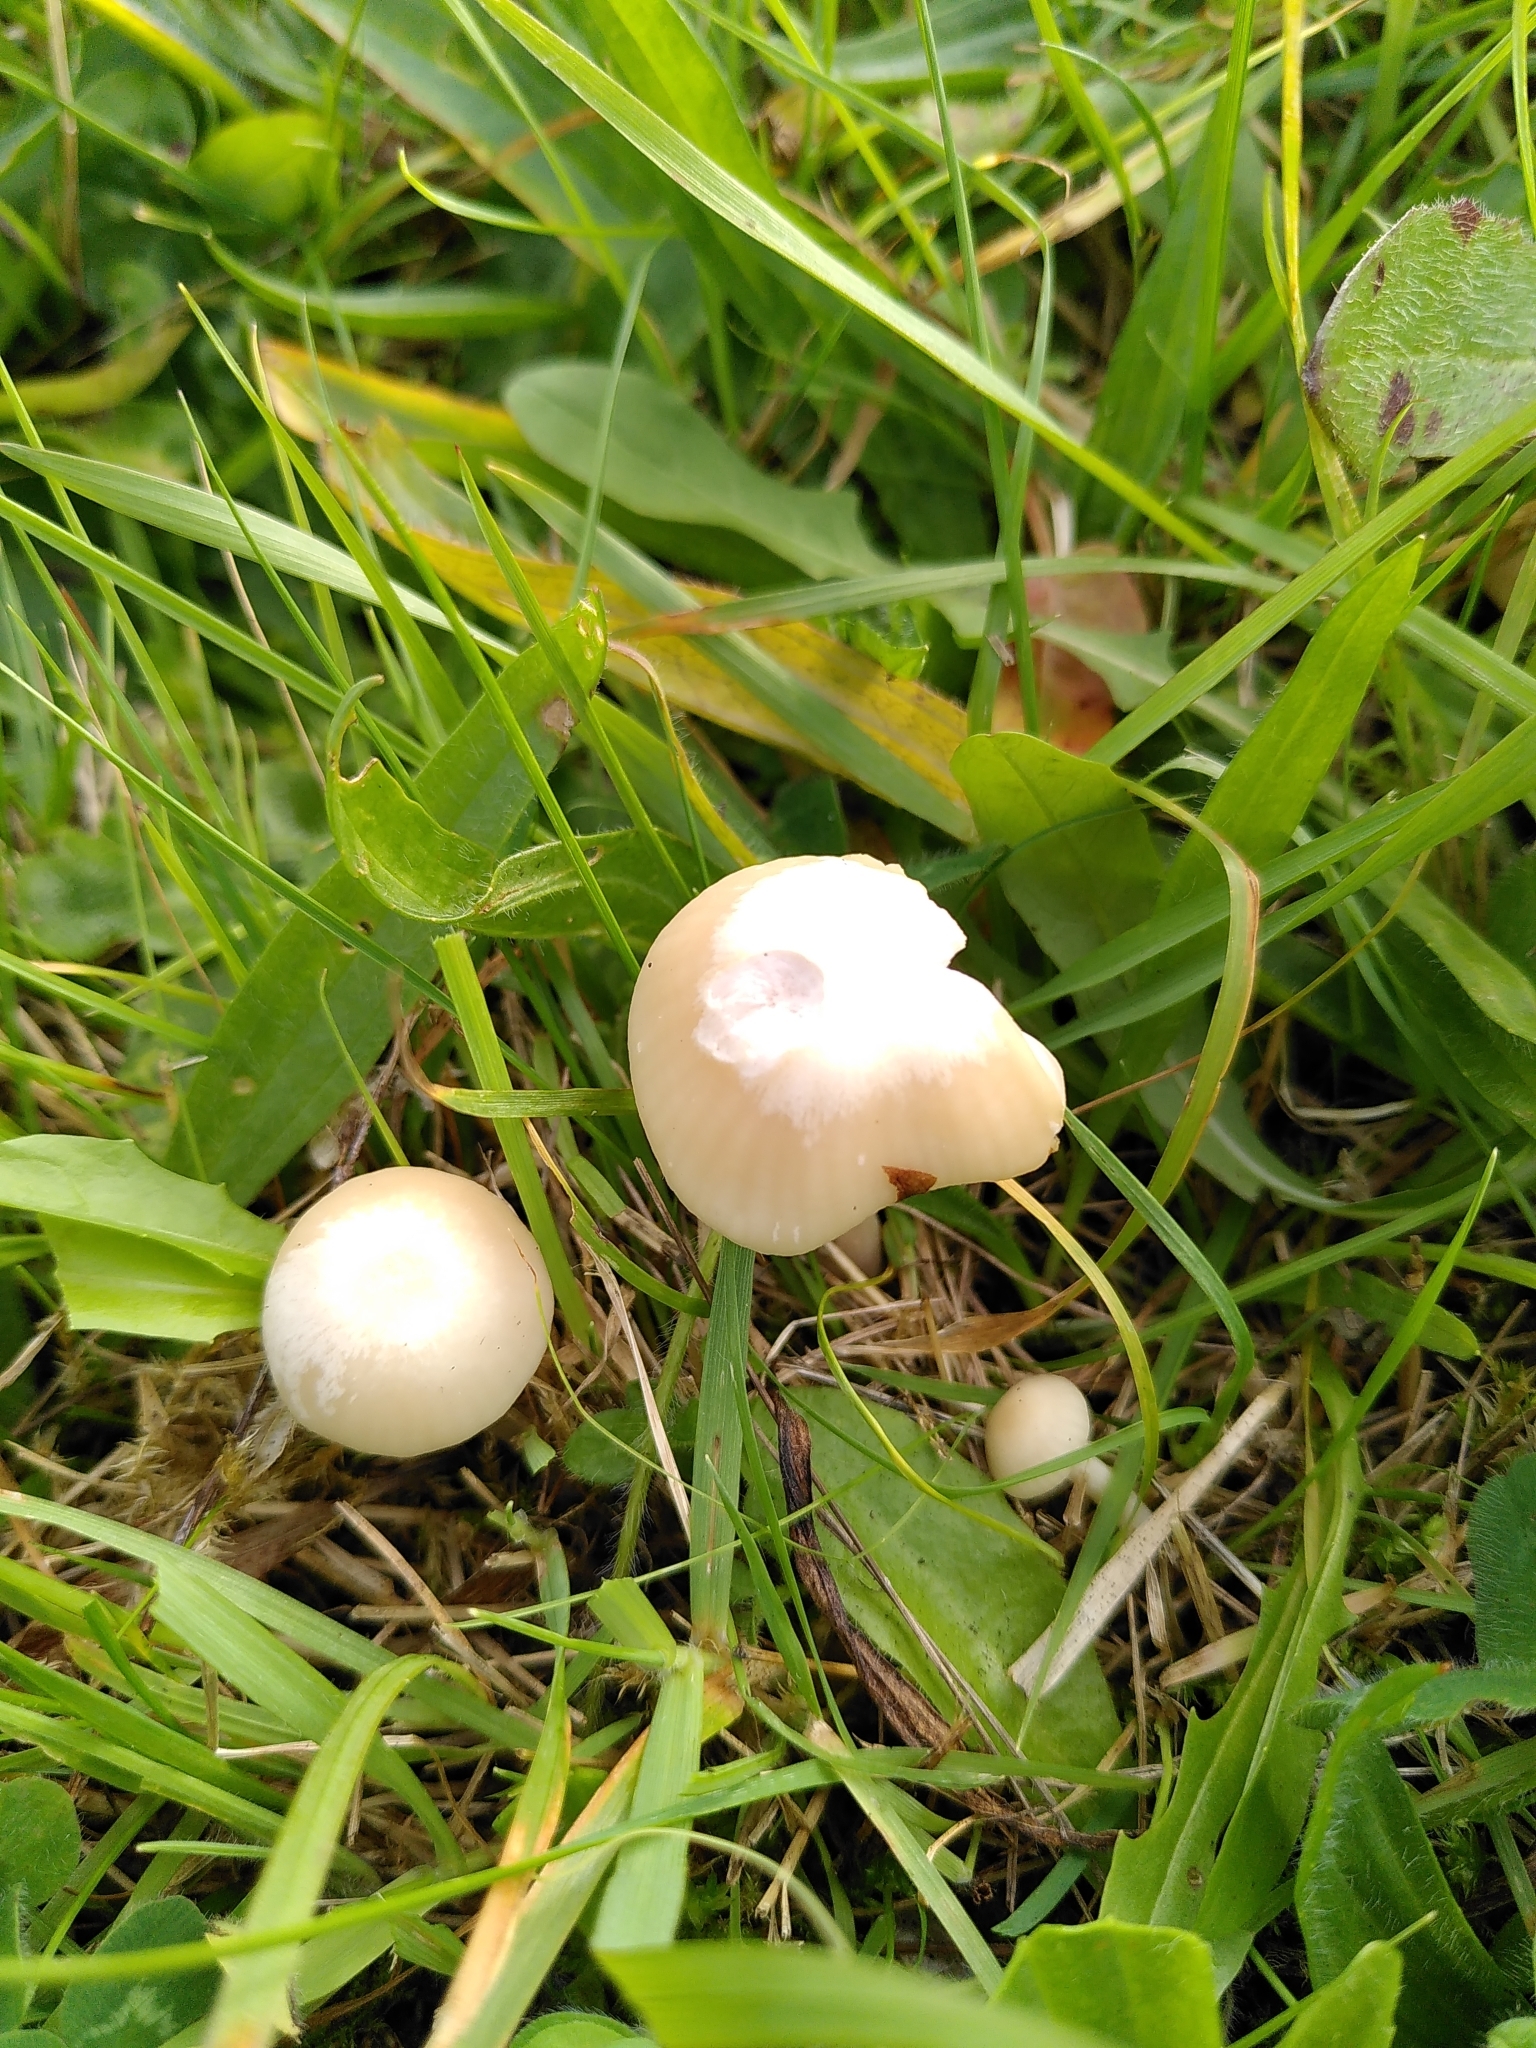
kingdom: Fungi
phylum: Basidiomycota
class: Agaricomycetes
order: Agaricales
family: Hygrophoraceae
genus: Cuphophyllus
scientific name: Cuphophyllus virgineus
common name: Snowy waxcap
